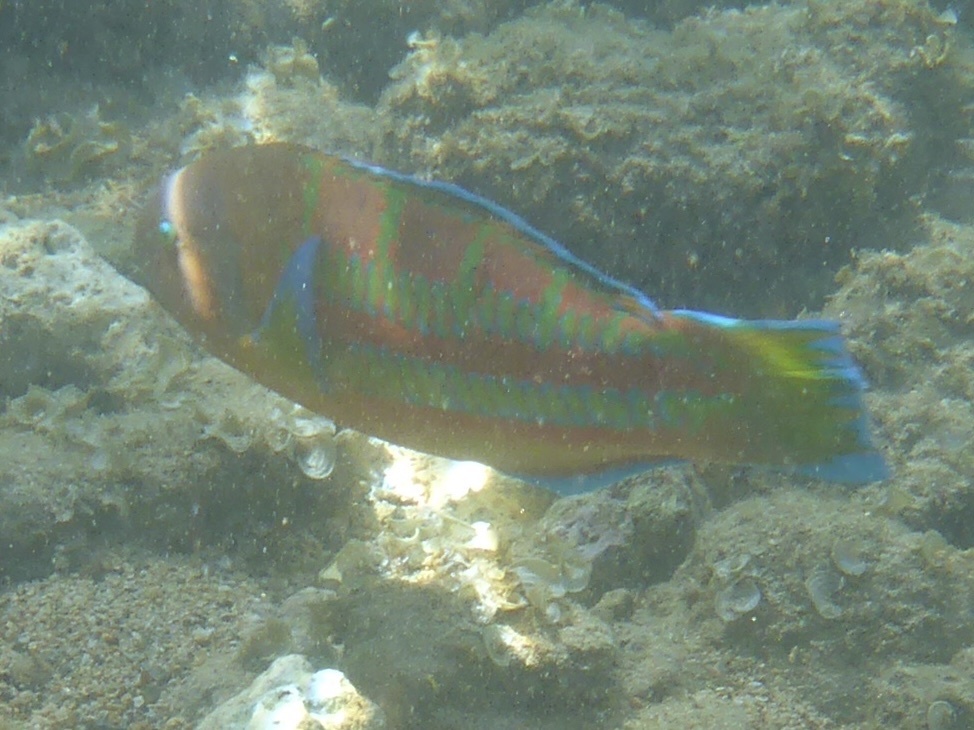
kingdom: Animalia
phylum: Chordata
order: Perciformes
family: Labridae
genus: Thalassoma
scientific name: Thalassoma trilobatum
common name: Christmas wrasse
